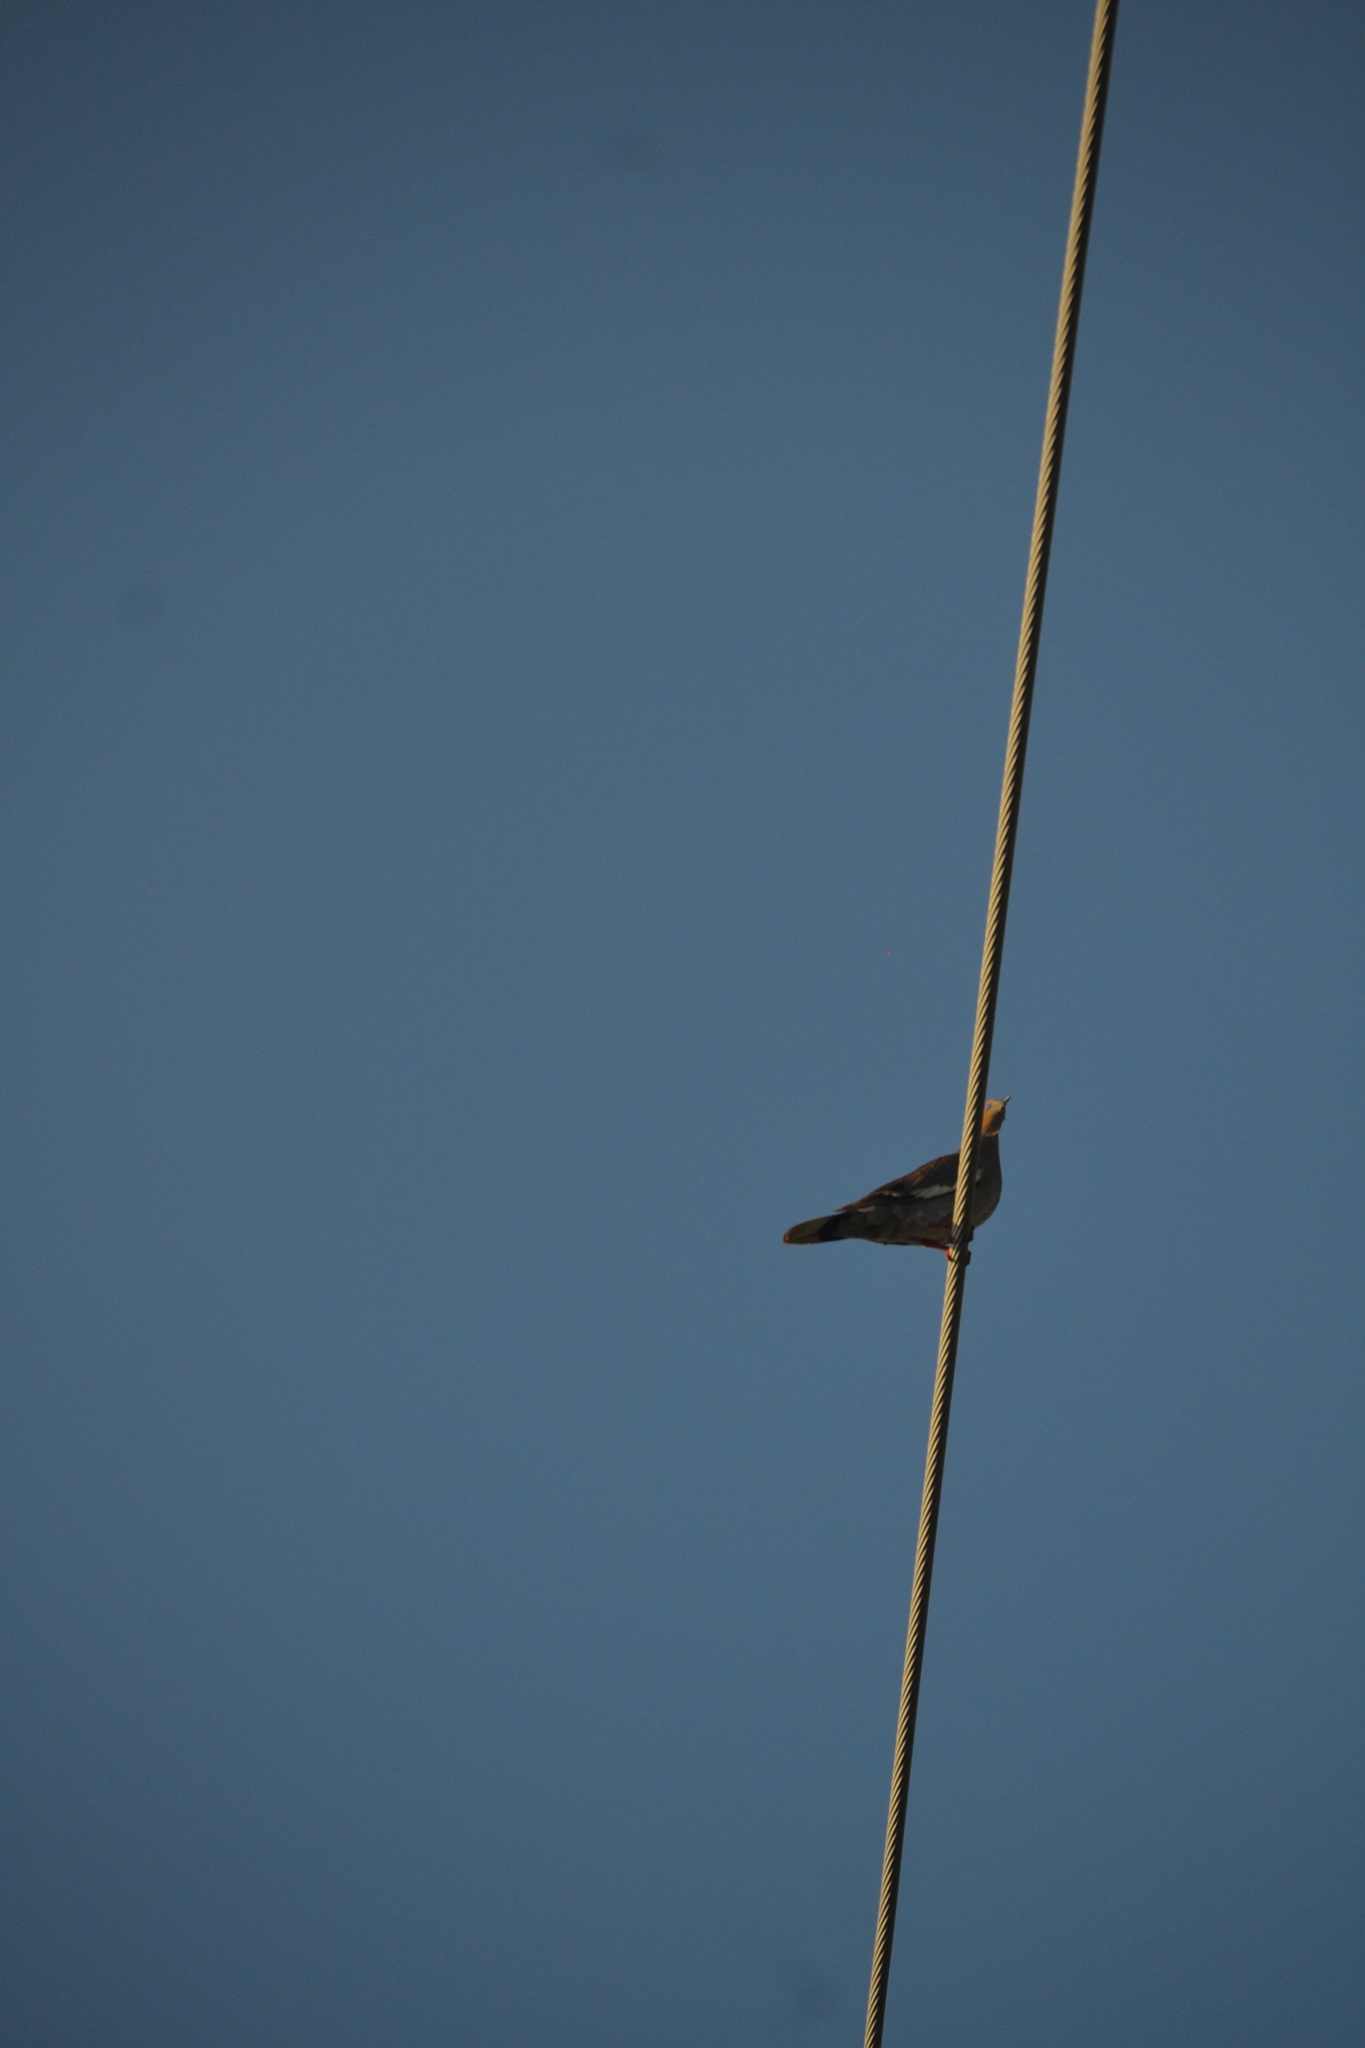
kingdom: Animalia
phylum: Chordata
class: Aves
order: Columbiformes
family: Columbidae
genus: Zenaida
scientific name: Zenaida asiatica
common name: White-winged dove
